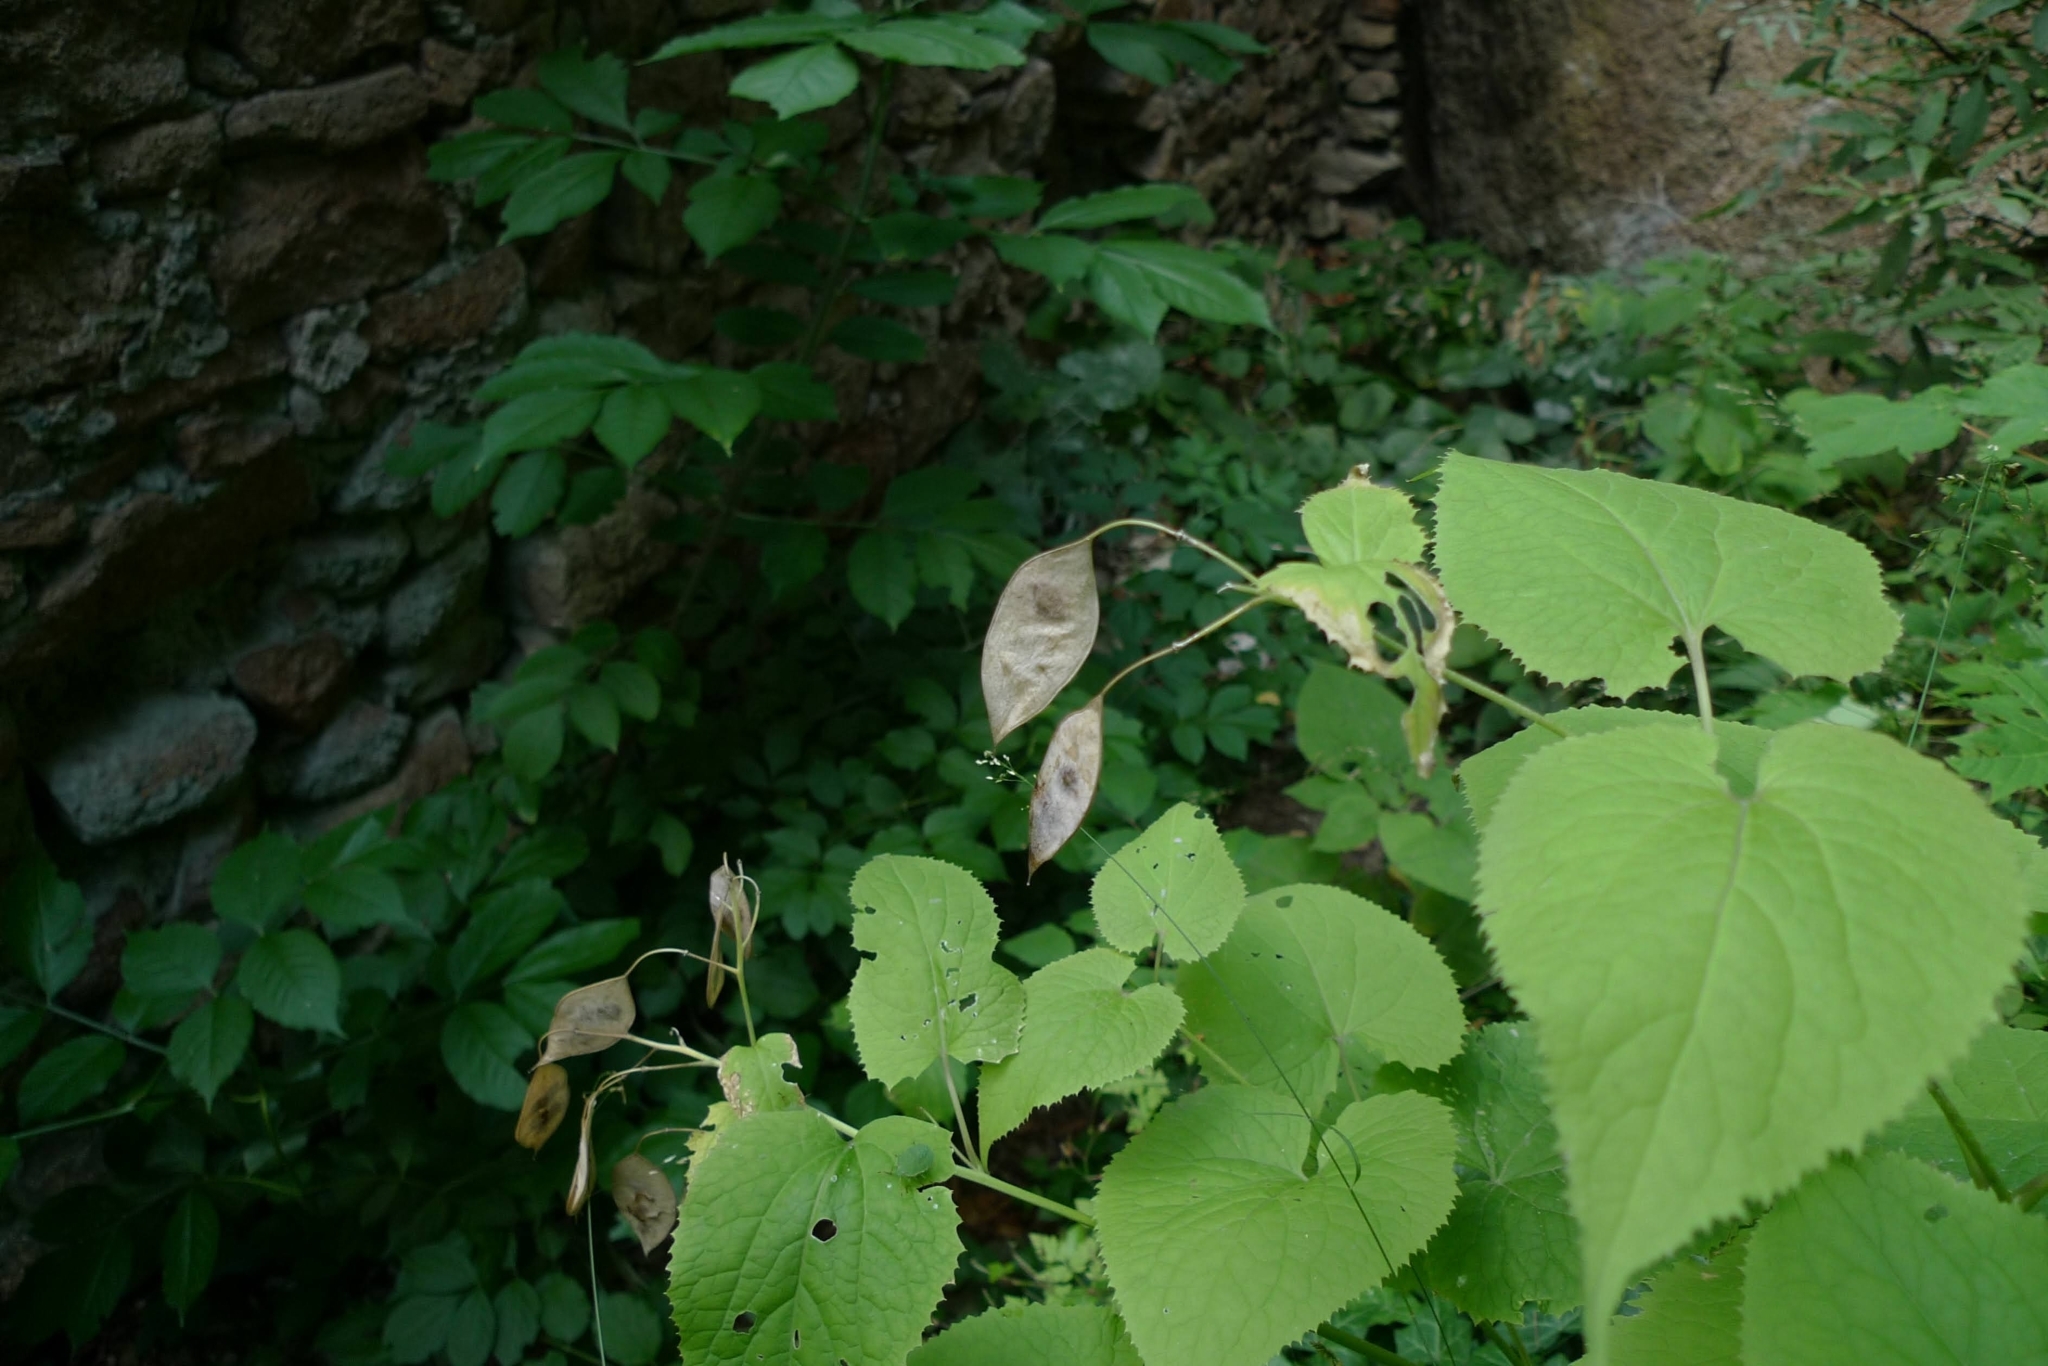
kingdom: Plantae
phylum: Tracheophyta
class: Magnoliopsida
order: Brassicales
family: Brassicaceae
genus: Lunaria
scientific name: Lunaria rediviva
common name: Perennial honesty
